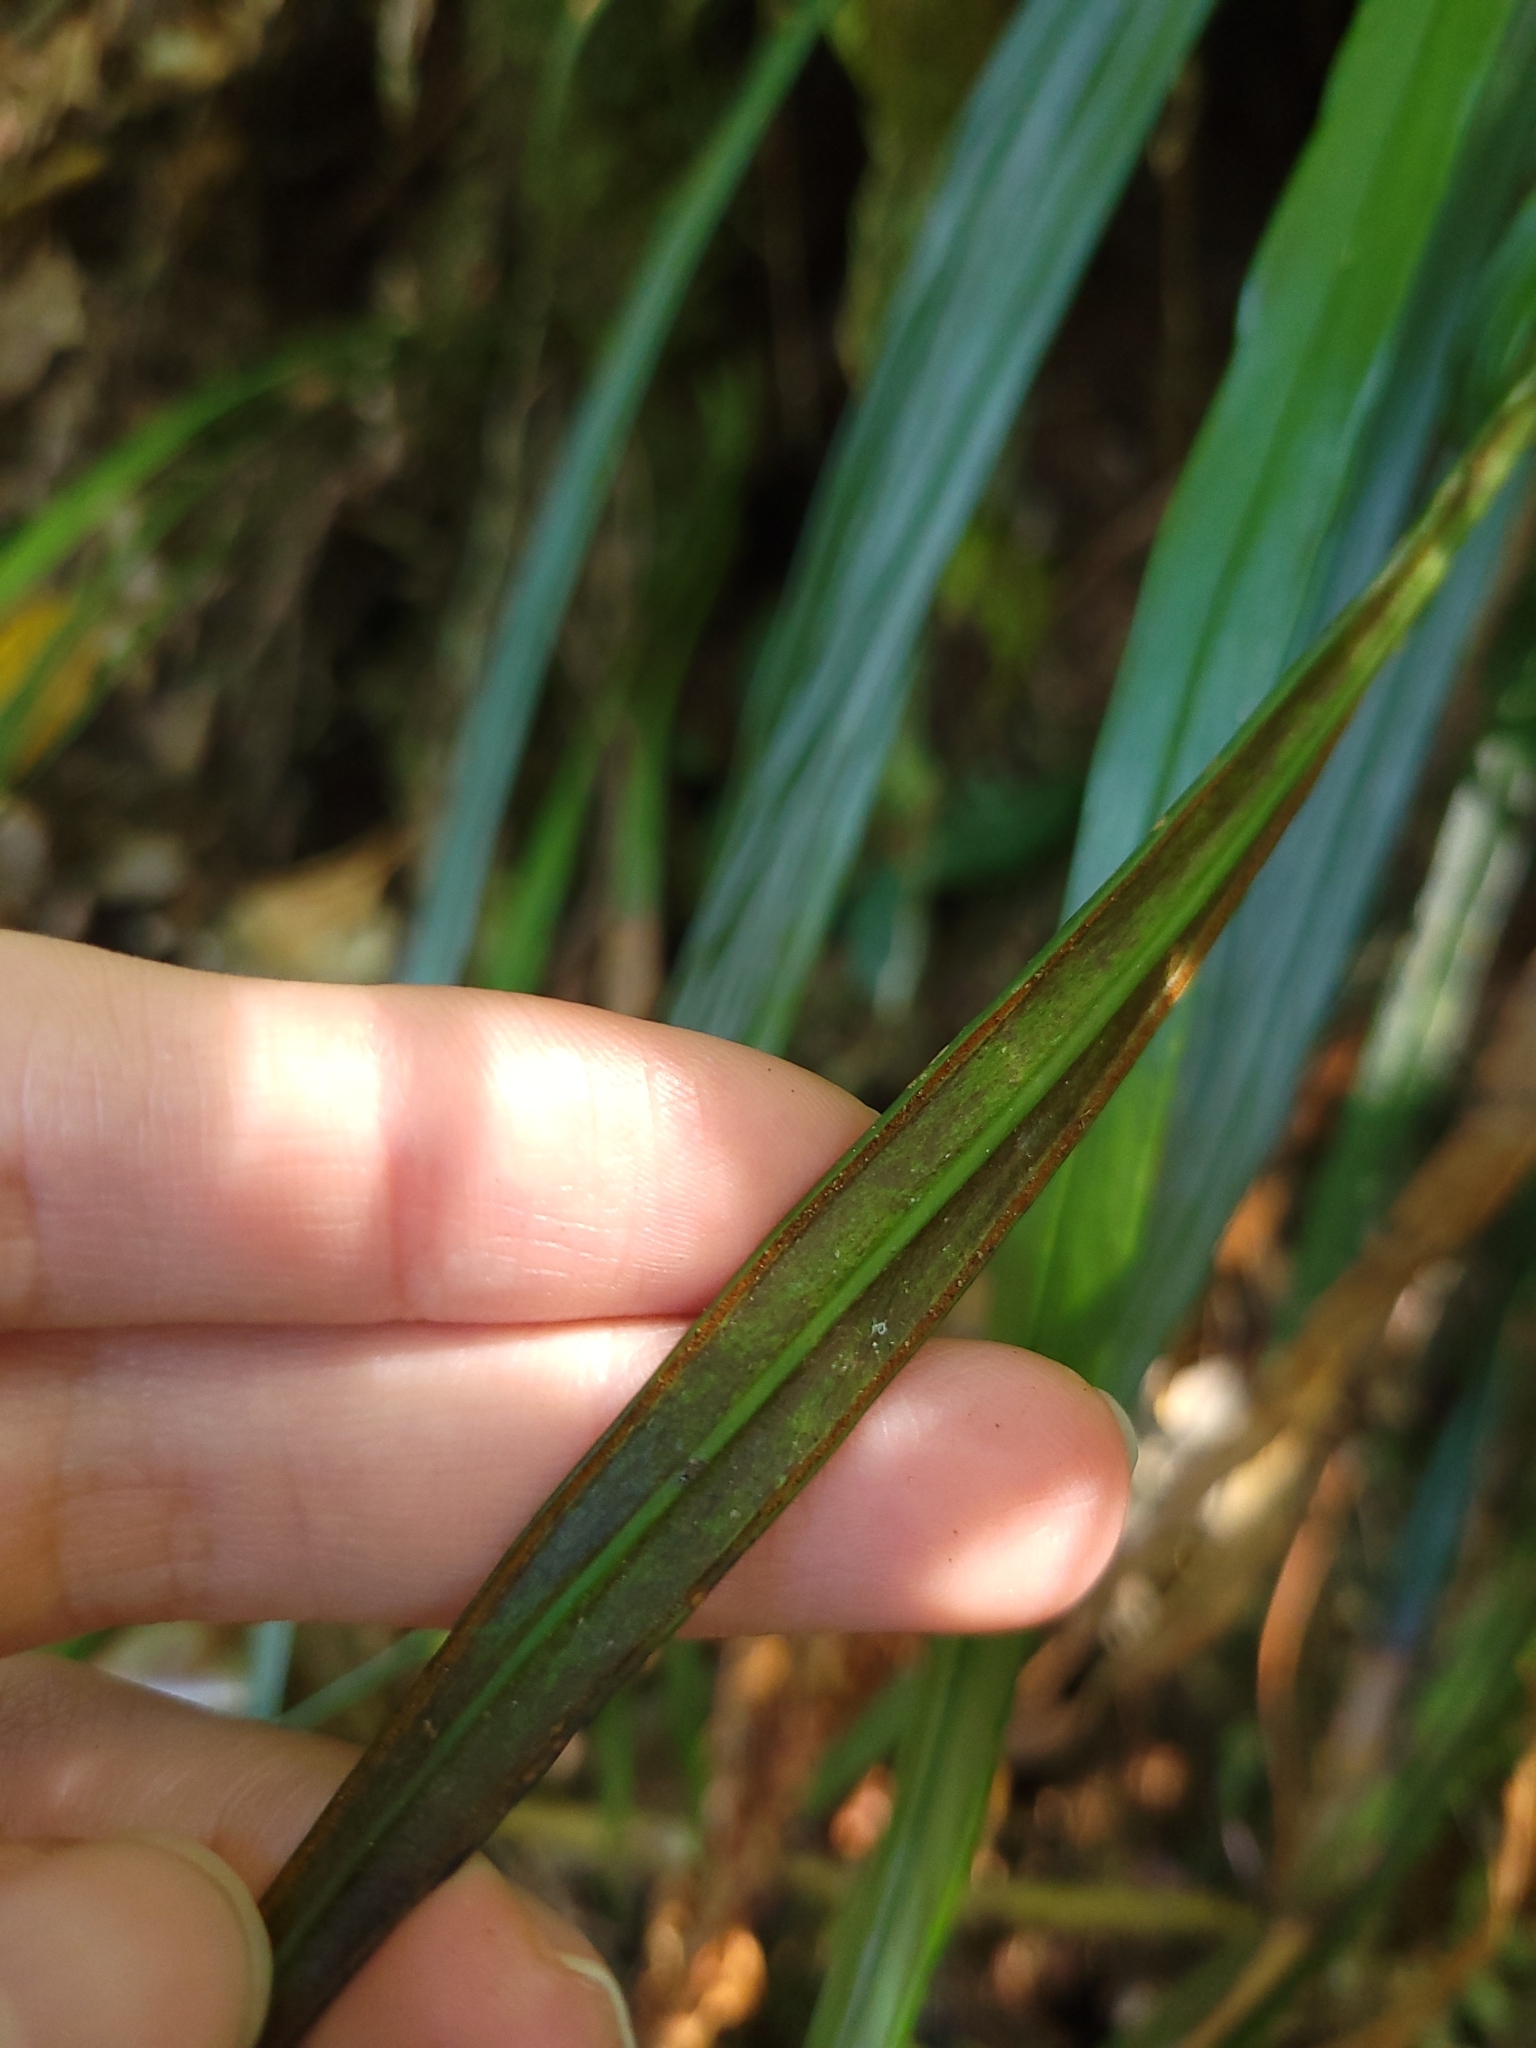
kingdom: Plantae
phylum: Tracheophyta
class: Polypodiopsida
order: Polypodiales
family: Pteridaceae
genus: Haplopteris
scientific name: Haplopteris flexuosa
